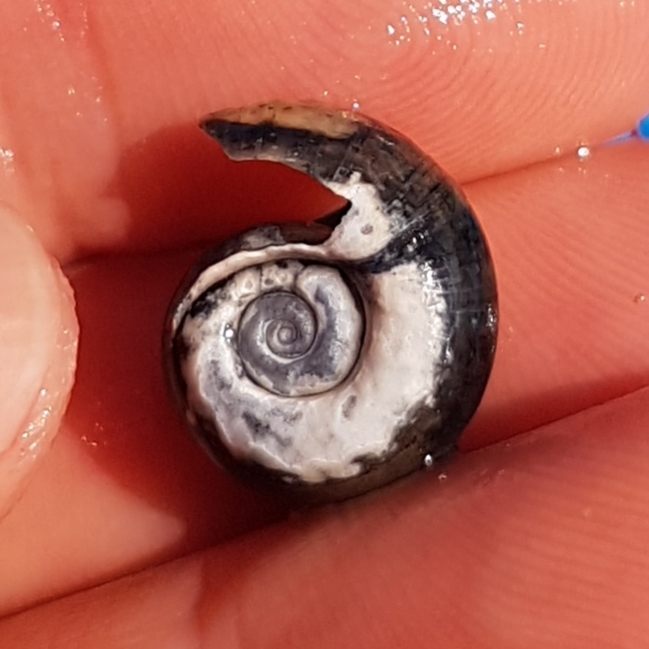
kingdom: Animalia
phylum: Mollusca
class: Gastropoda
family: Planorbidae
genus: Planorbarius
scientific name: Planorbarius corneus
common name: Great ramshorn
